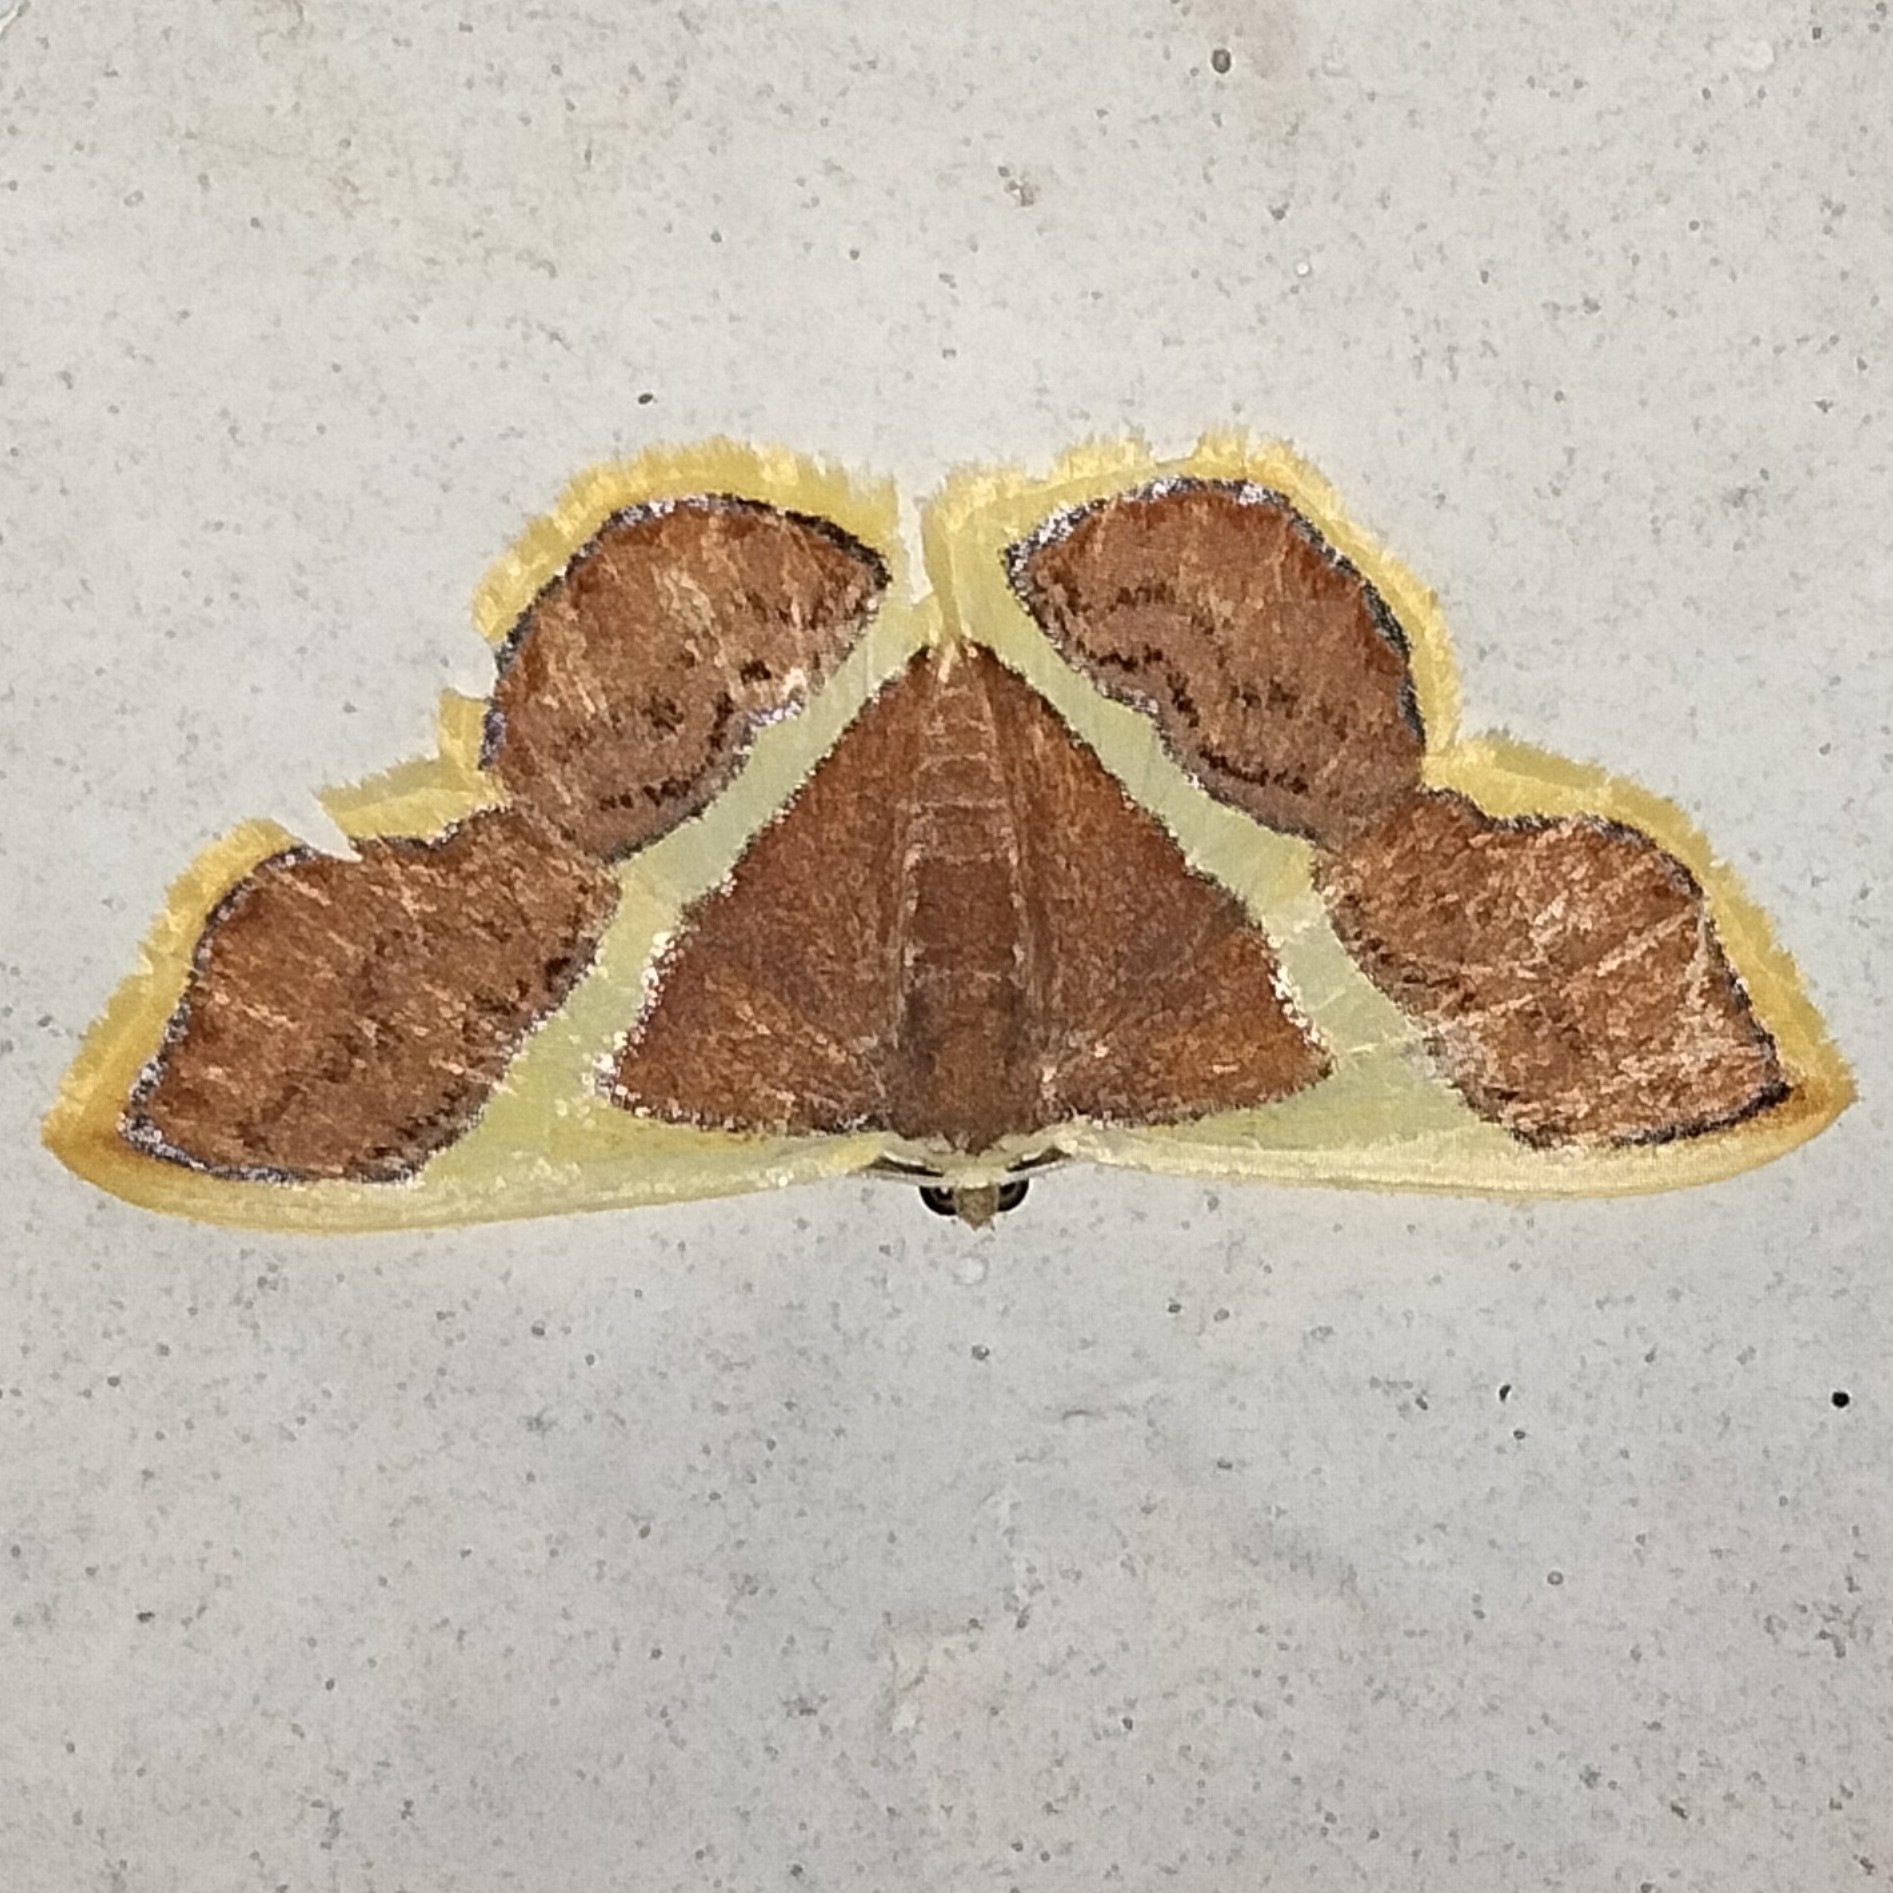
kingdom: Animalia
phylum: Arthropoda
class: Insecta
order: Lepidoptera
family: Geometridae
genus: Plutodes
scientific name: Plutodes quadratus
